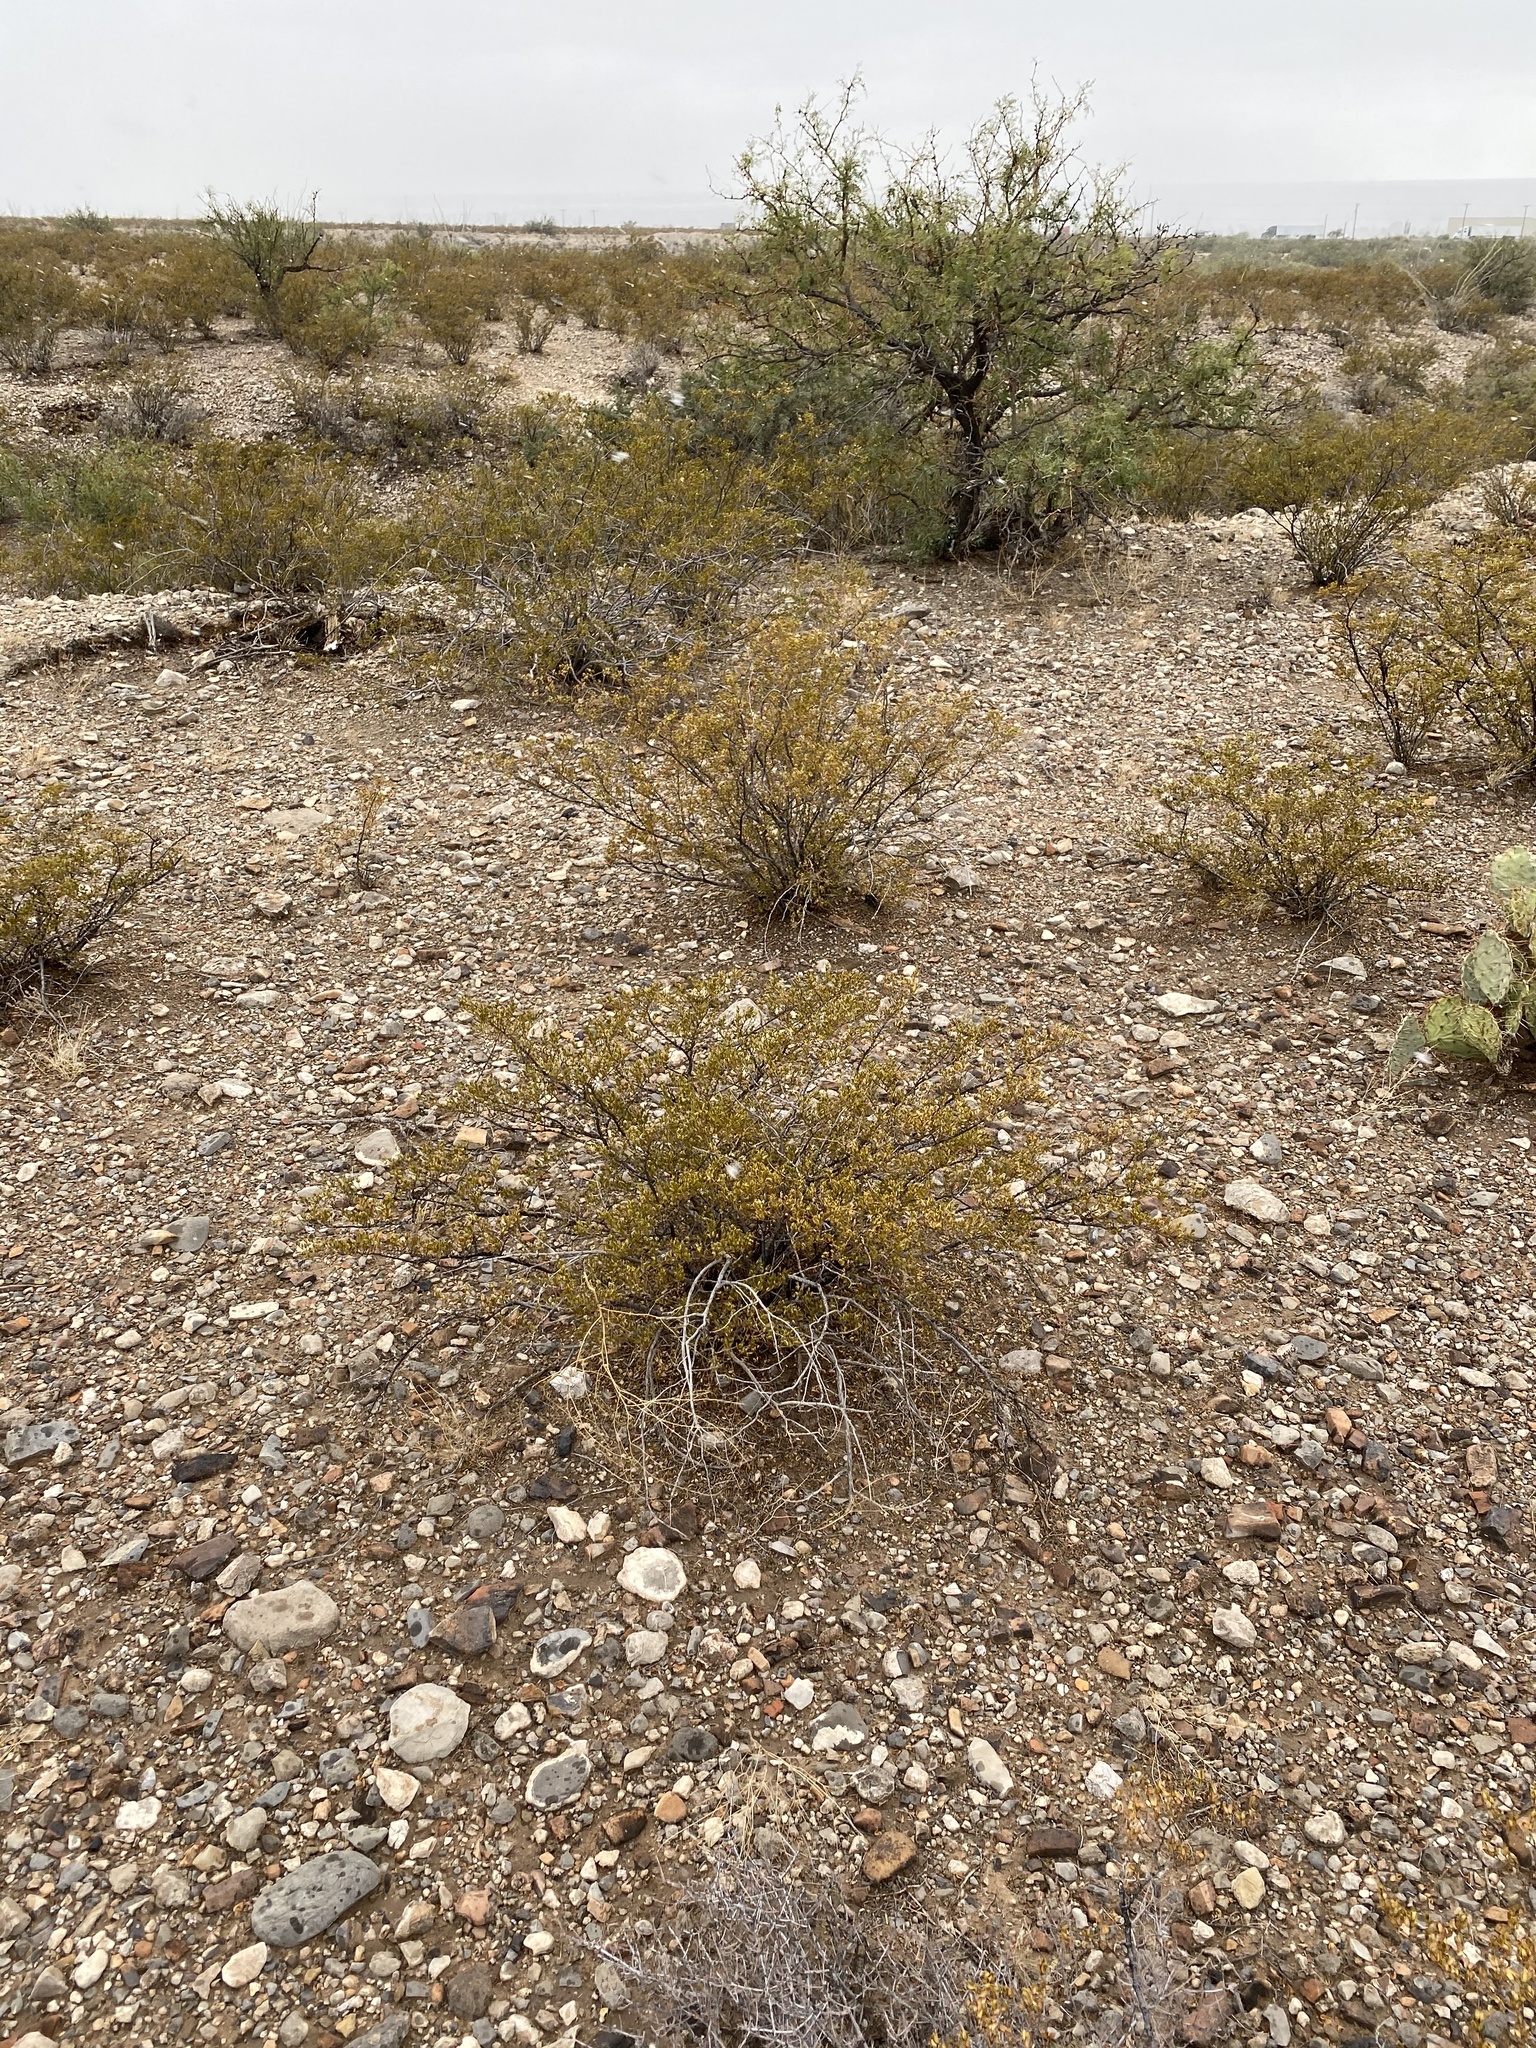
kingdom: Plantae
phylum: Tracheophyta
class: Magnoliopsida
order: Zygophyllales
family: Zygophyllaceae
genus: Larrea
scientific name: Larrea tridentata
